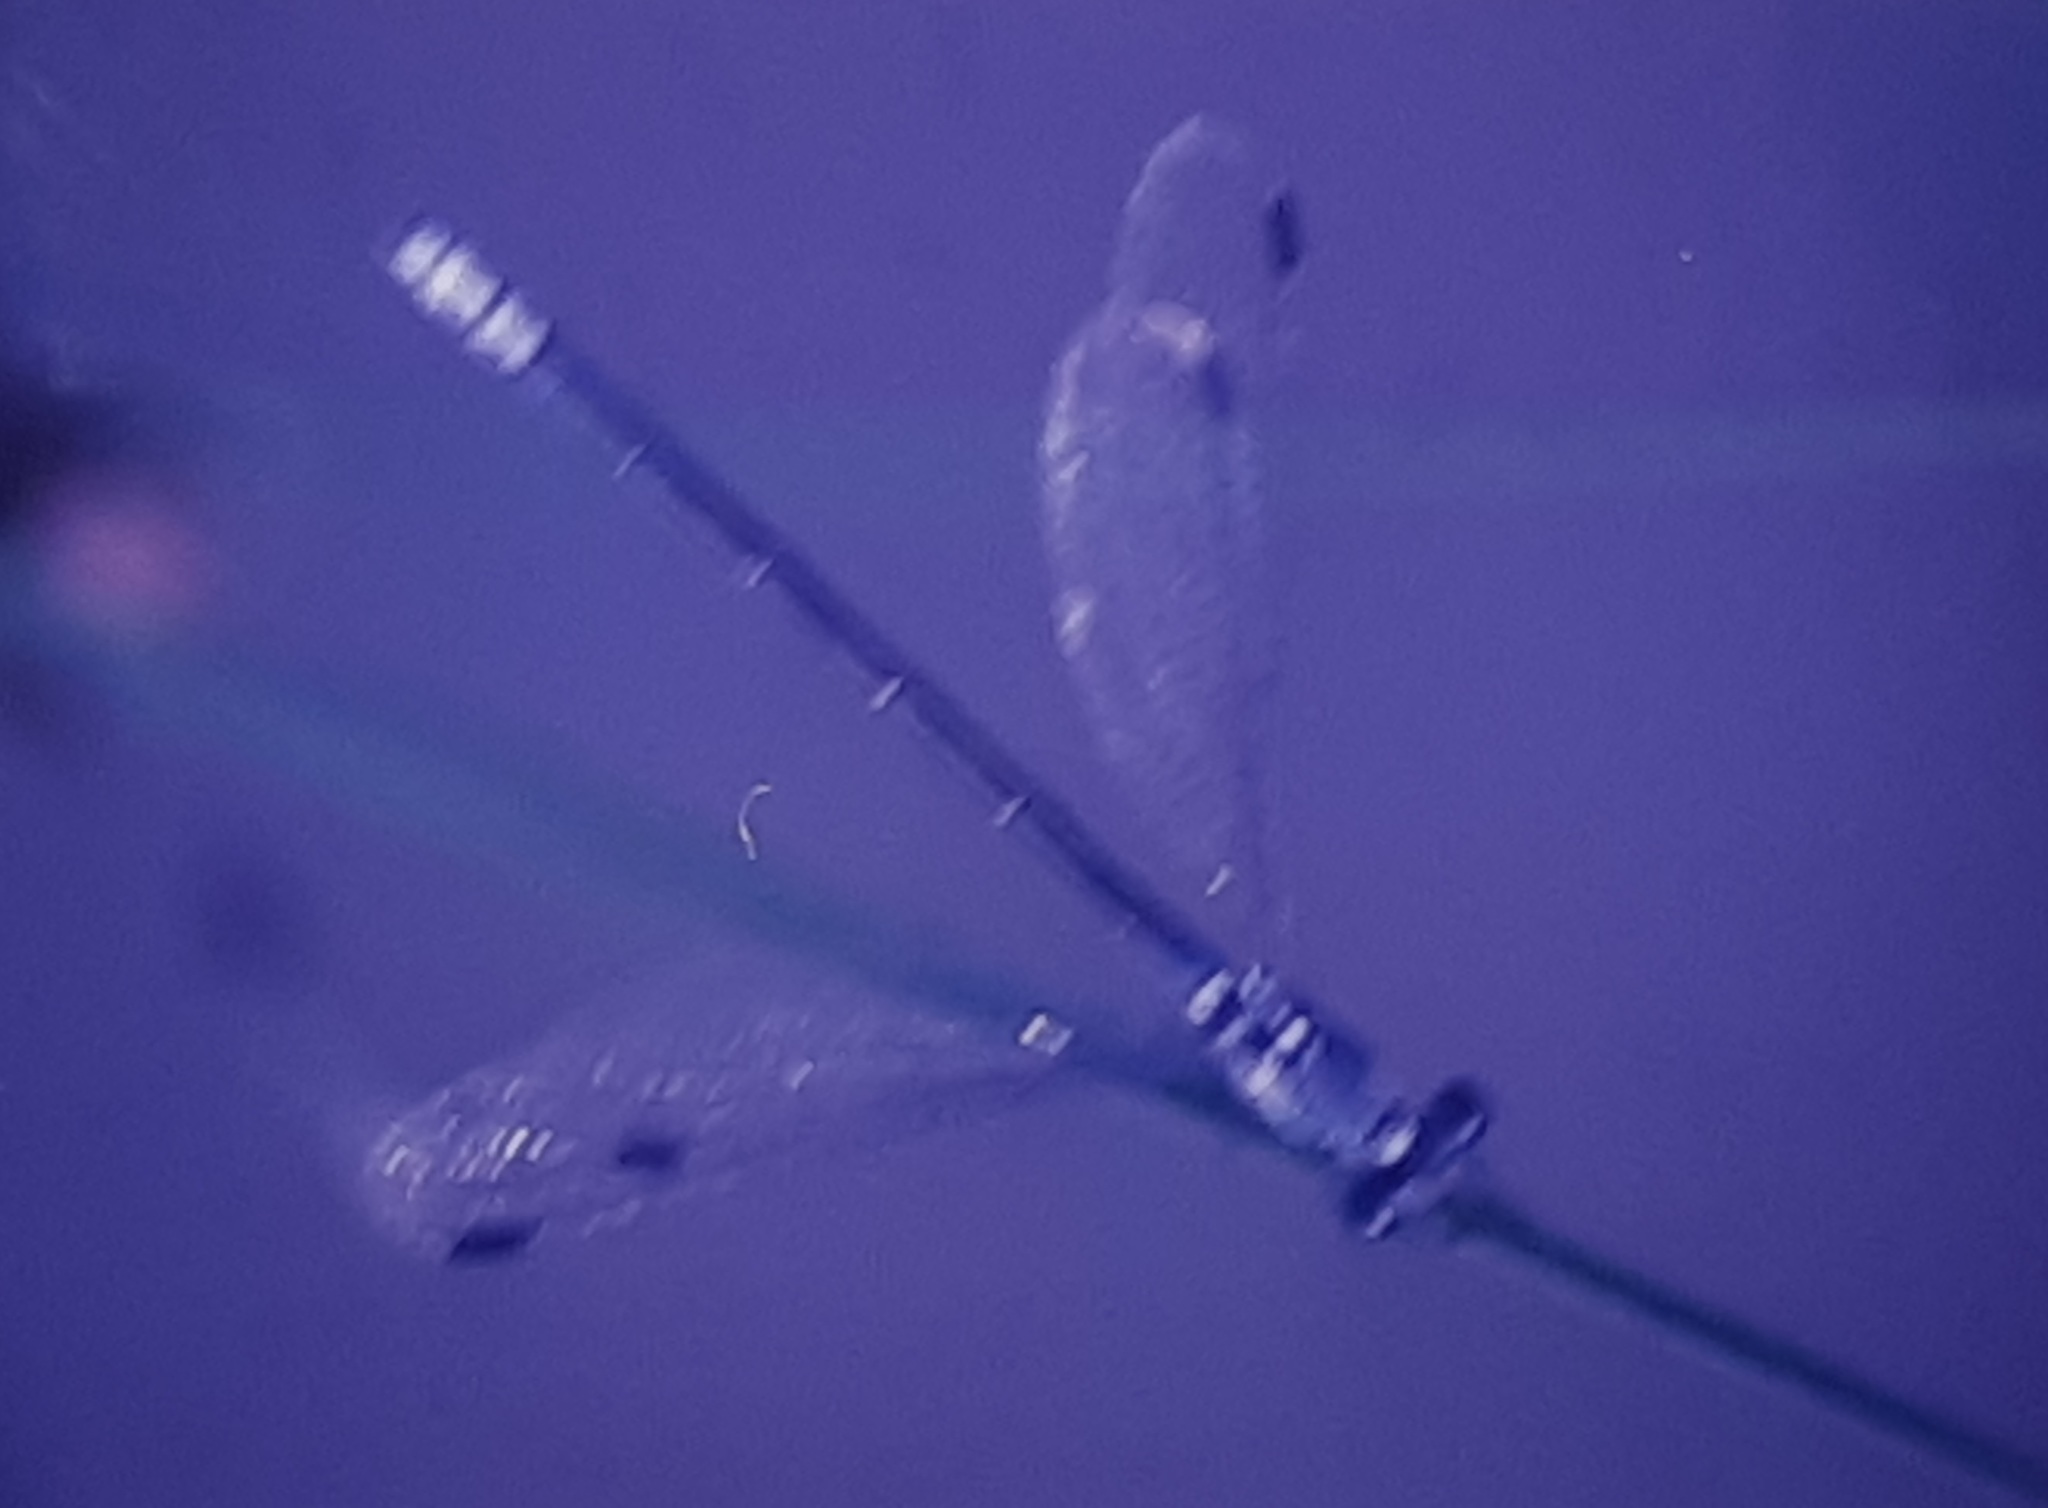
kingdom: Animalia
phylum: Arthropoda
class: Insecta
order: Odonata
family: Lestidae
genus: Lestes
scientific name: Lestes macrostigma
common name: Dark spreadwing
